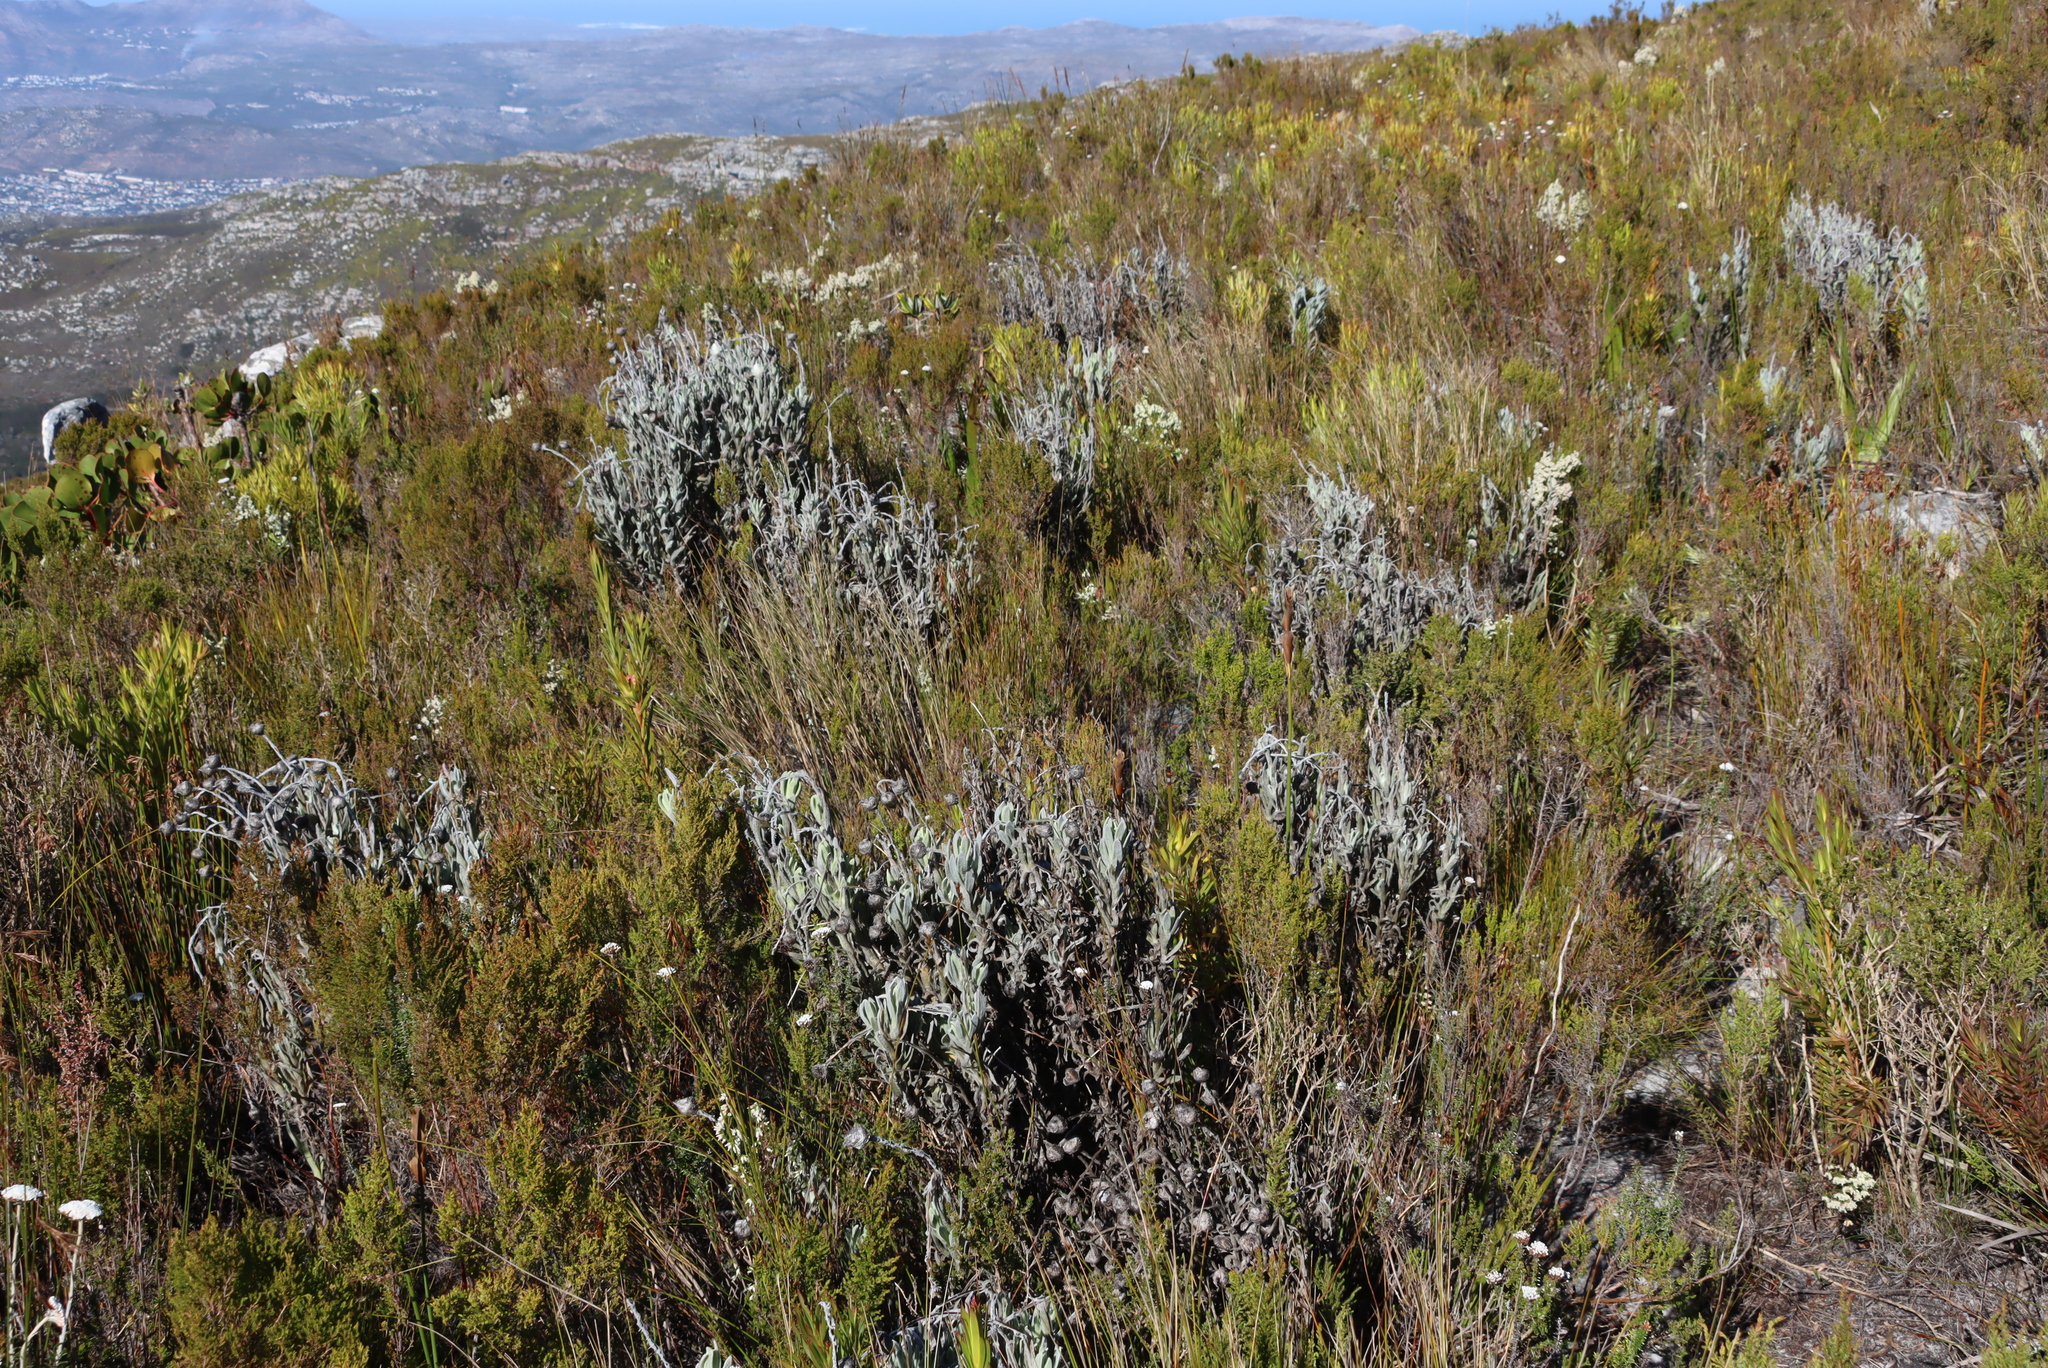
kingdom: Plantae
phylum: Tracheophyta
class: Magnoliopsida
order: Asterales
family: Asteraceae
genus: Syncarpha
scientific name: Syncarpha vestita
